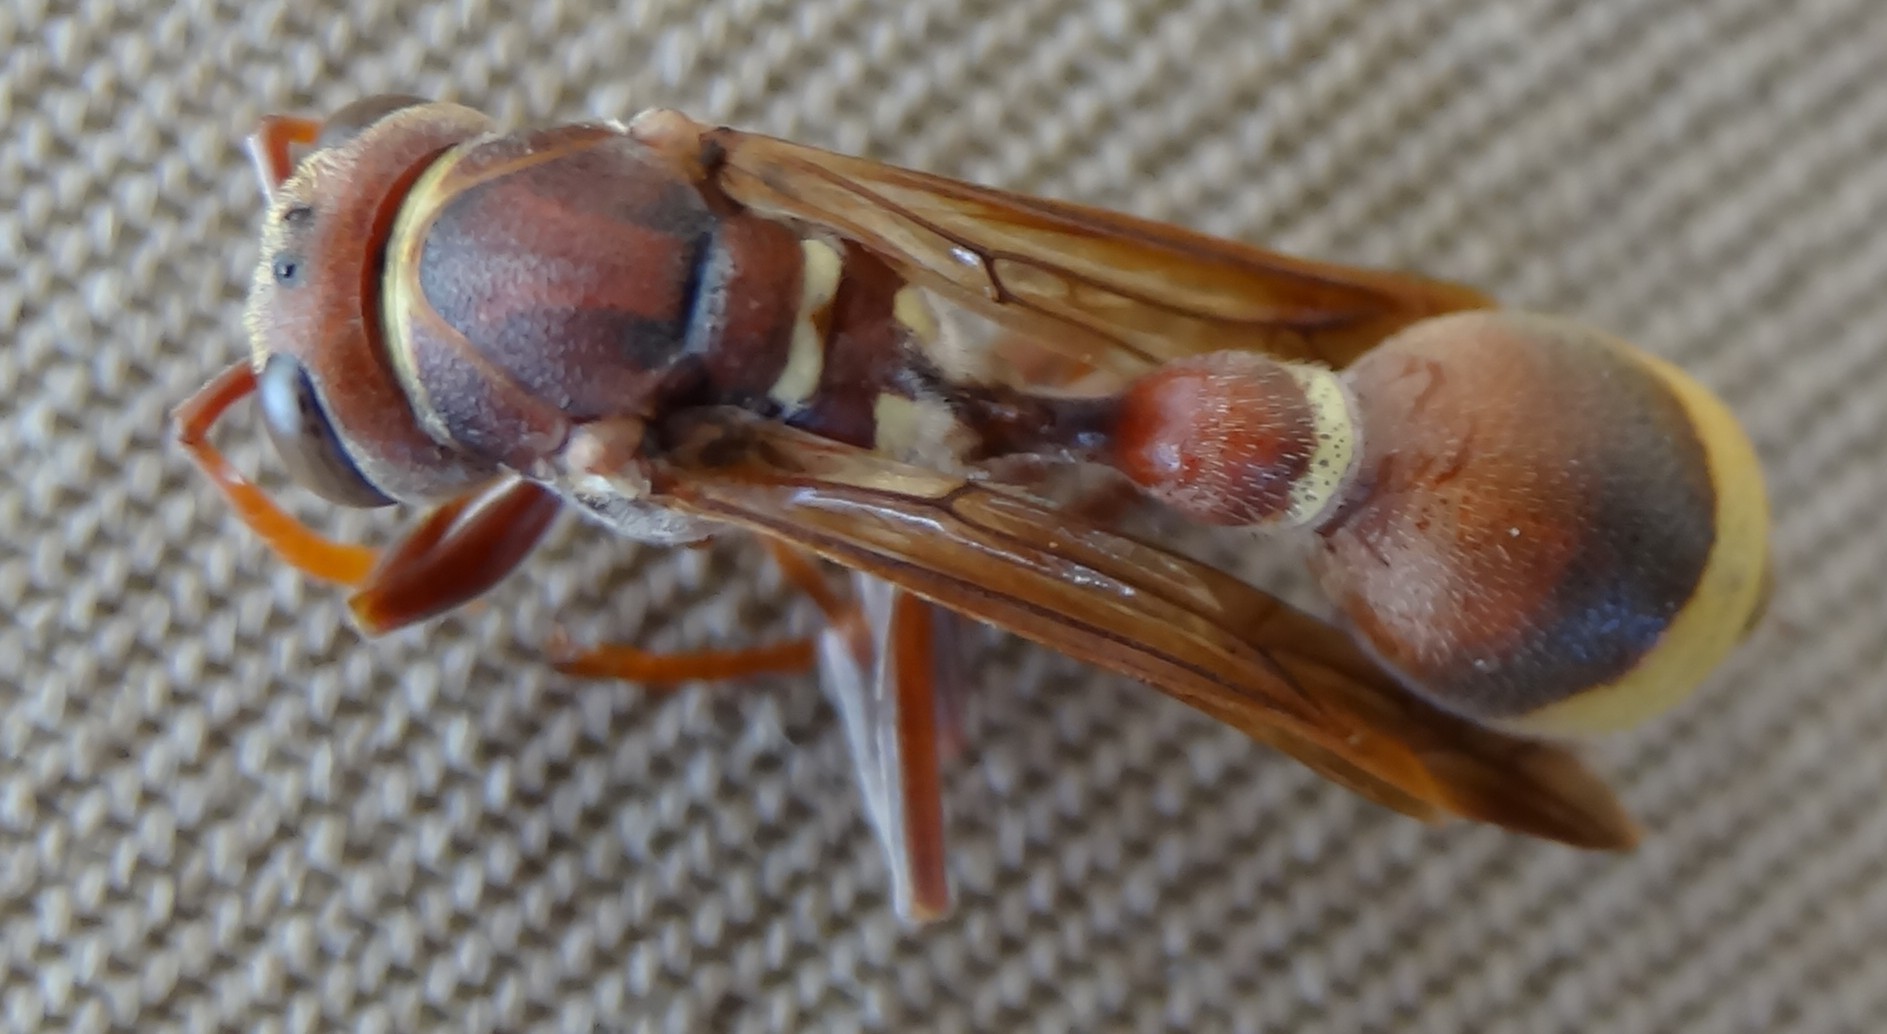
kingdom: Animalia
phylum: Arthropoda
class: Insecta
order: Hymenoptera
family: Vespidae
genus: Ropalidia
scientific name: Ropalidia marginata
